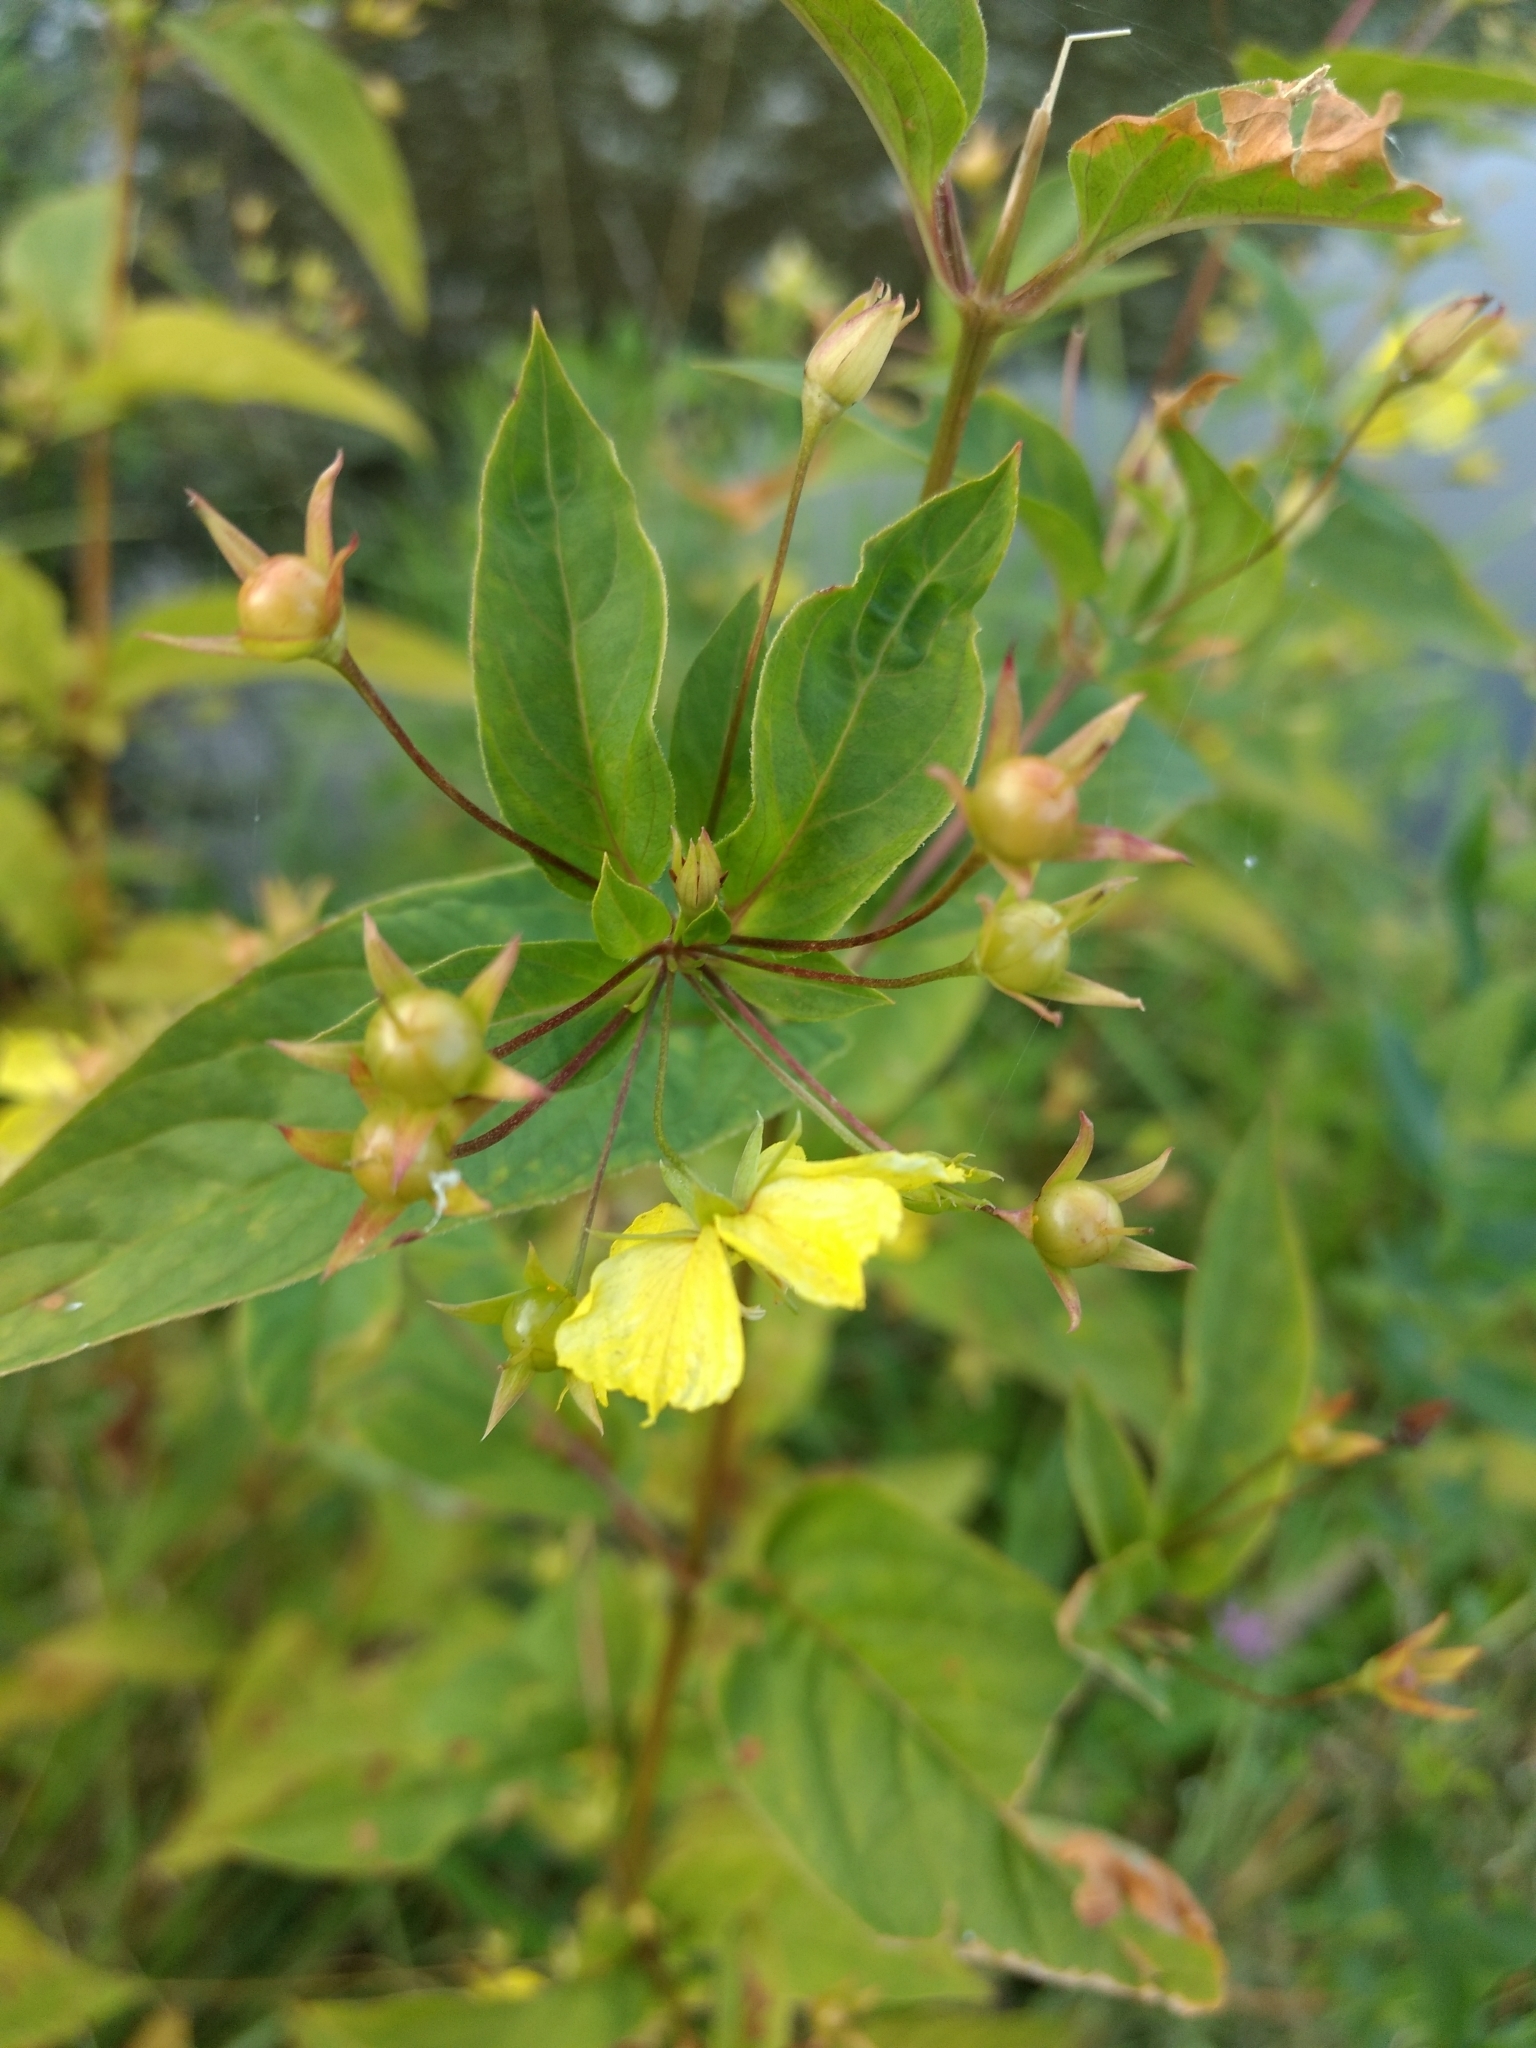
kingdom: Plantae
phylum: Tracheophyta
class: Magnoliopsida
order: Ericales
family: Primulaceae
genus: Lysimachia
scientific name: Lysimachia ciliata
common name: Fringed loosestrife
